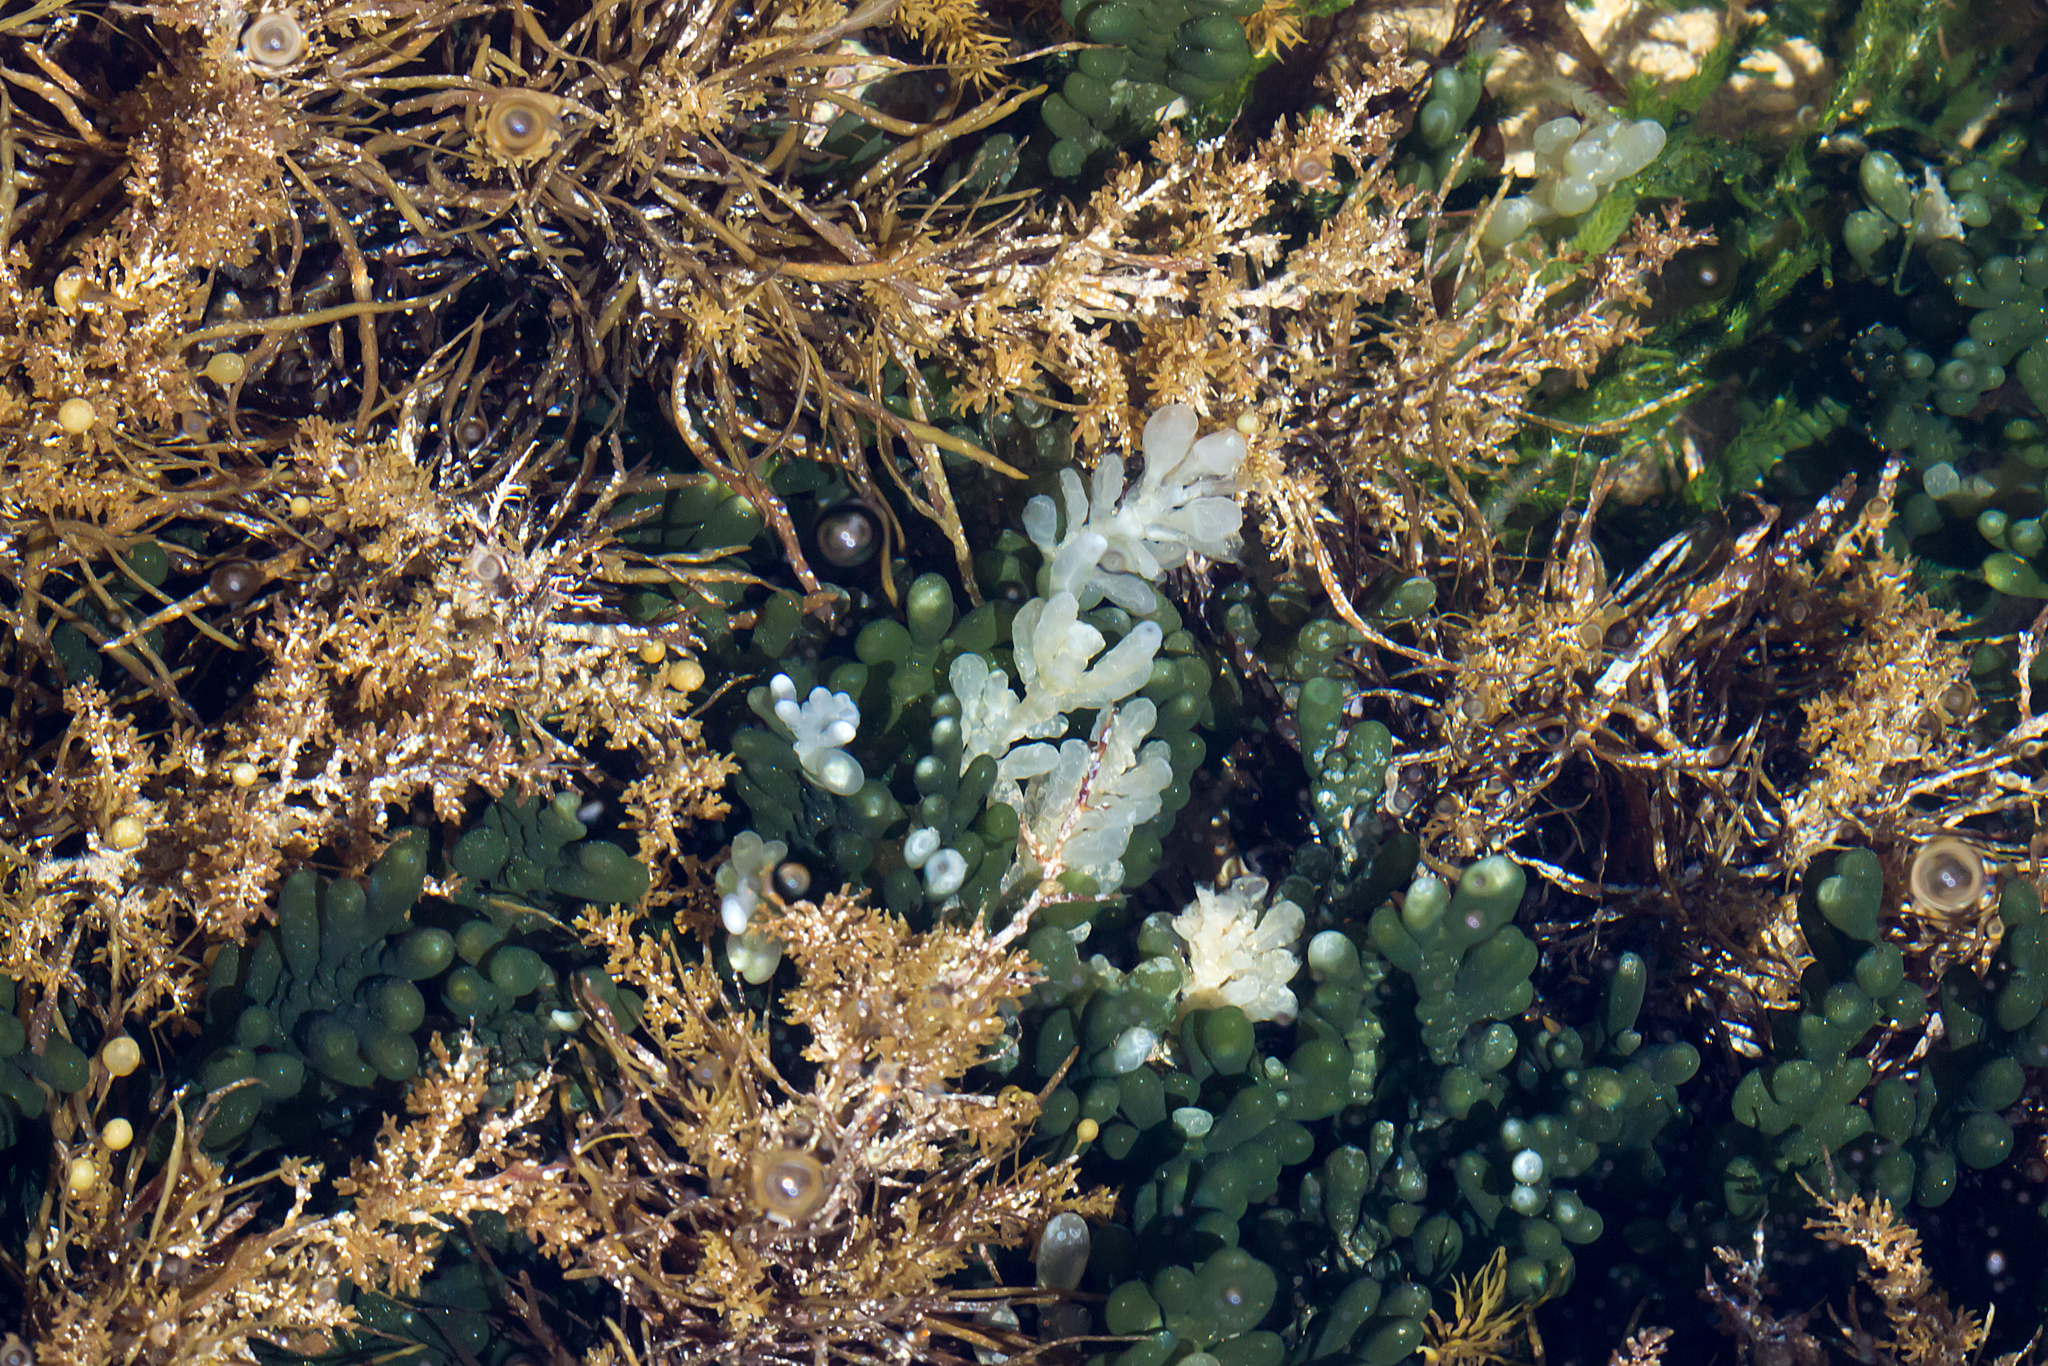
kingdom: Plantae
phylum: Chlorophyta
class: Ulvophyceae
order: Bryopsidales
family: Caulerpaceae
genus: Caulerpa
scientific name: Caulerpa cactoides
